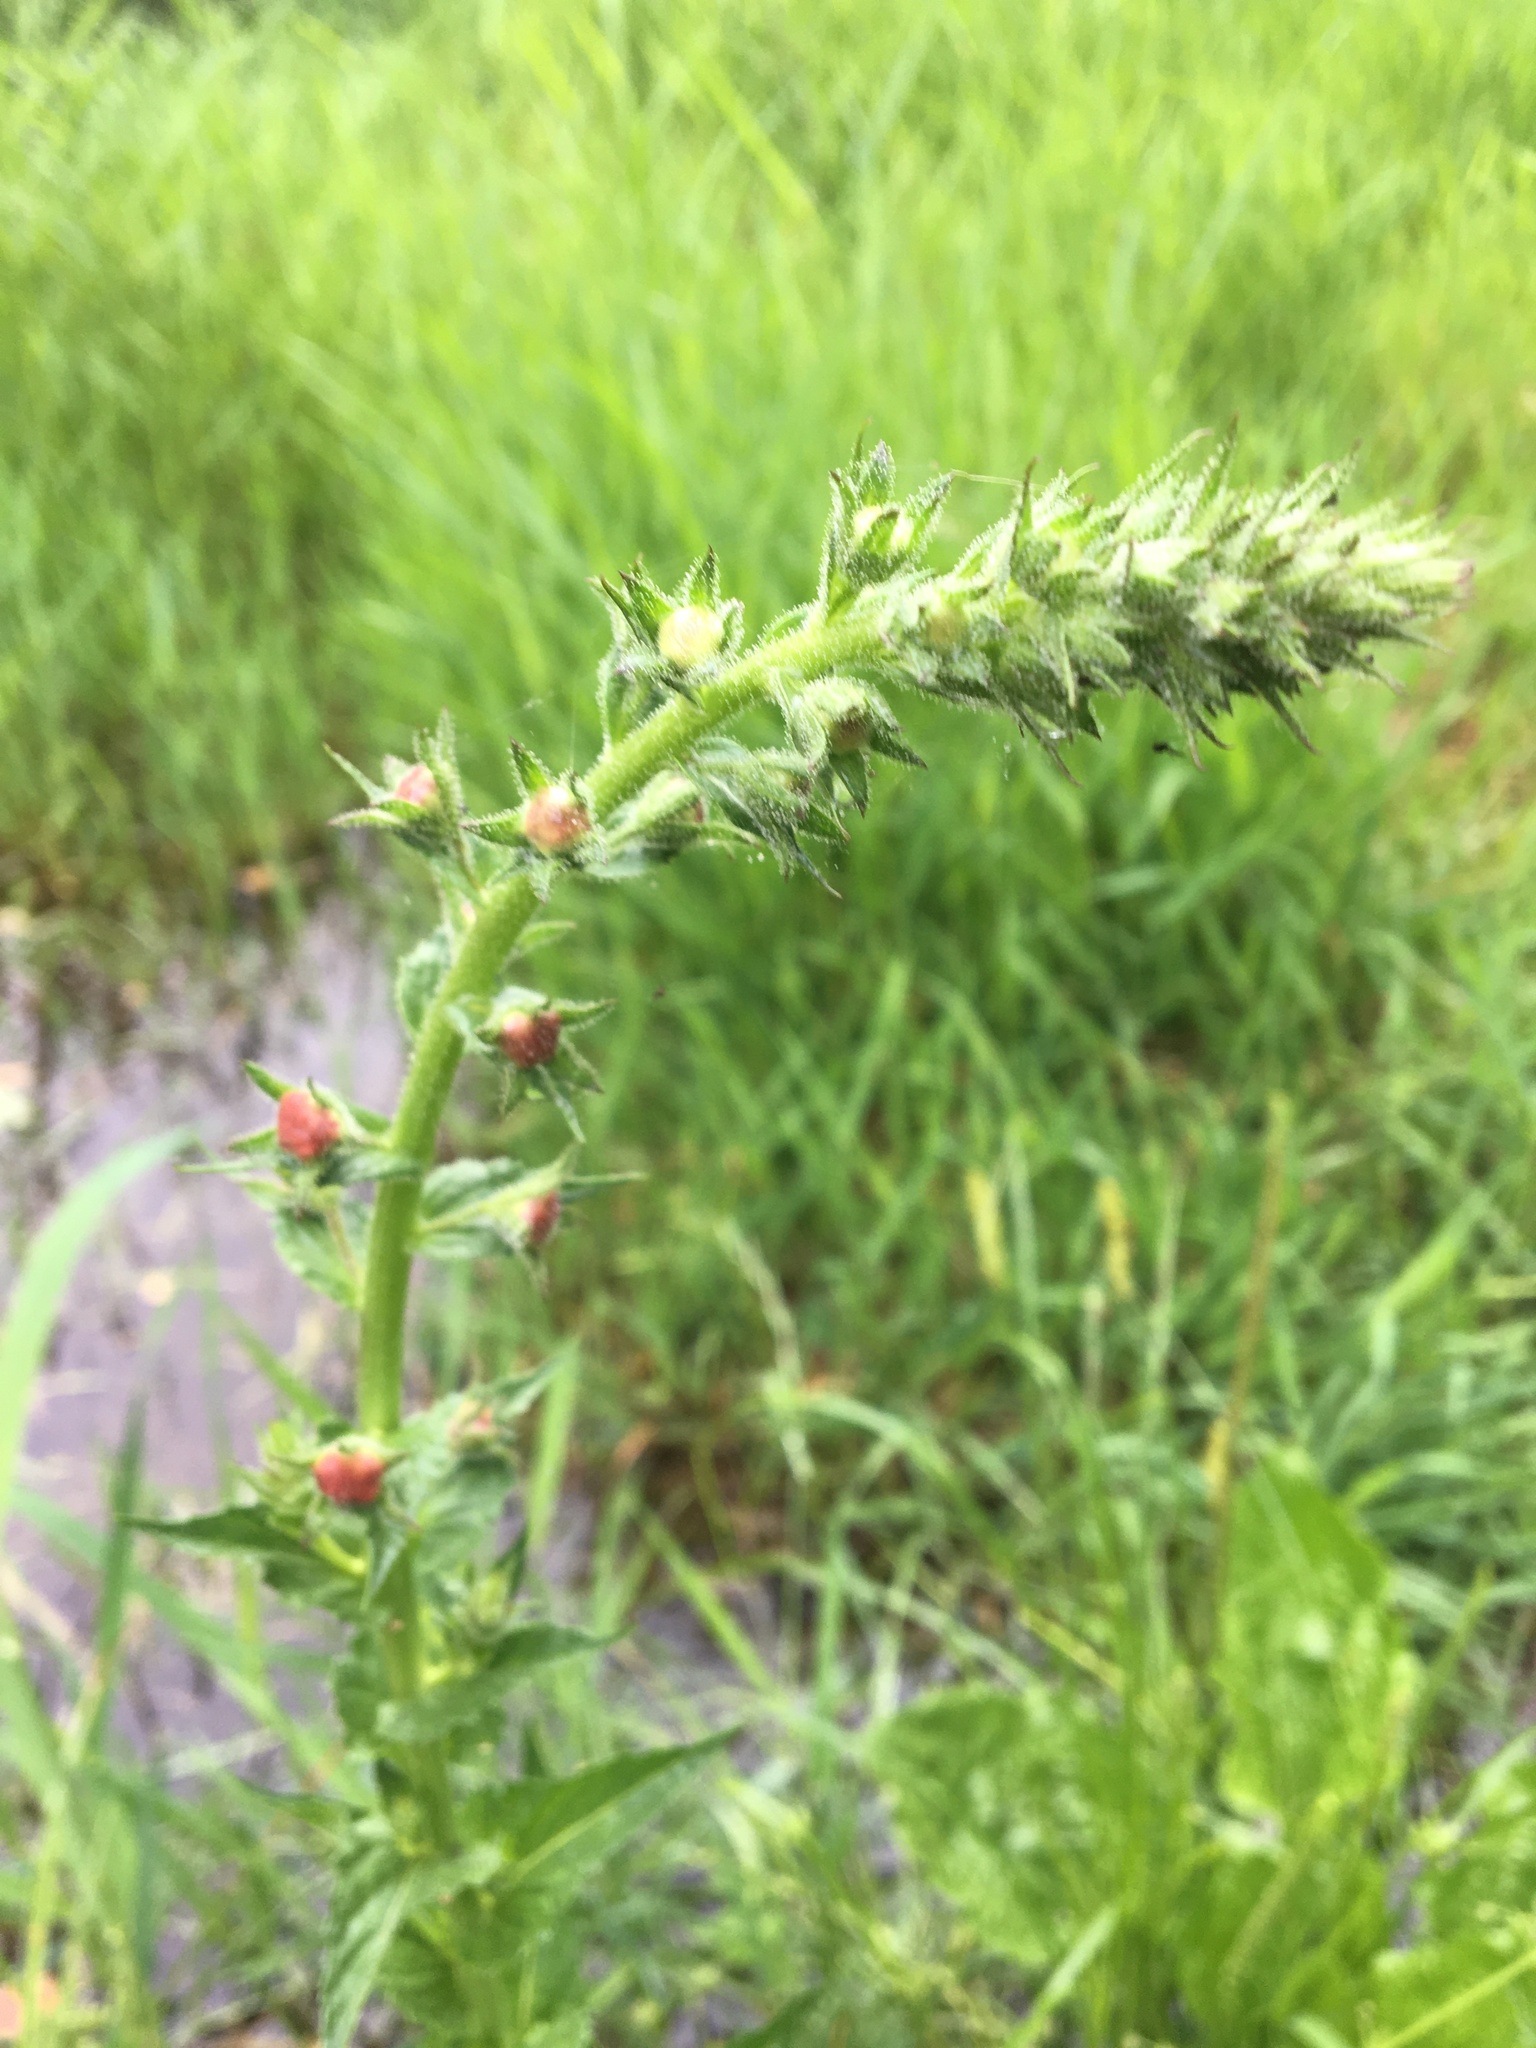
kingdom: Plantae
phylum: Tracheophyta
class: Magnoliopsida
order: Lamiales
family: Scrophulariaceae
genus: Verbascum
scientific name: Verbascum virgatum
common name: Twiggy mullein
